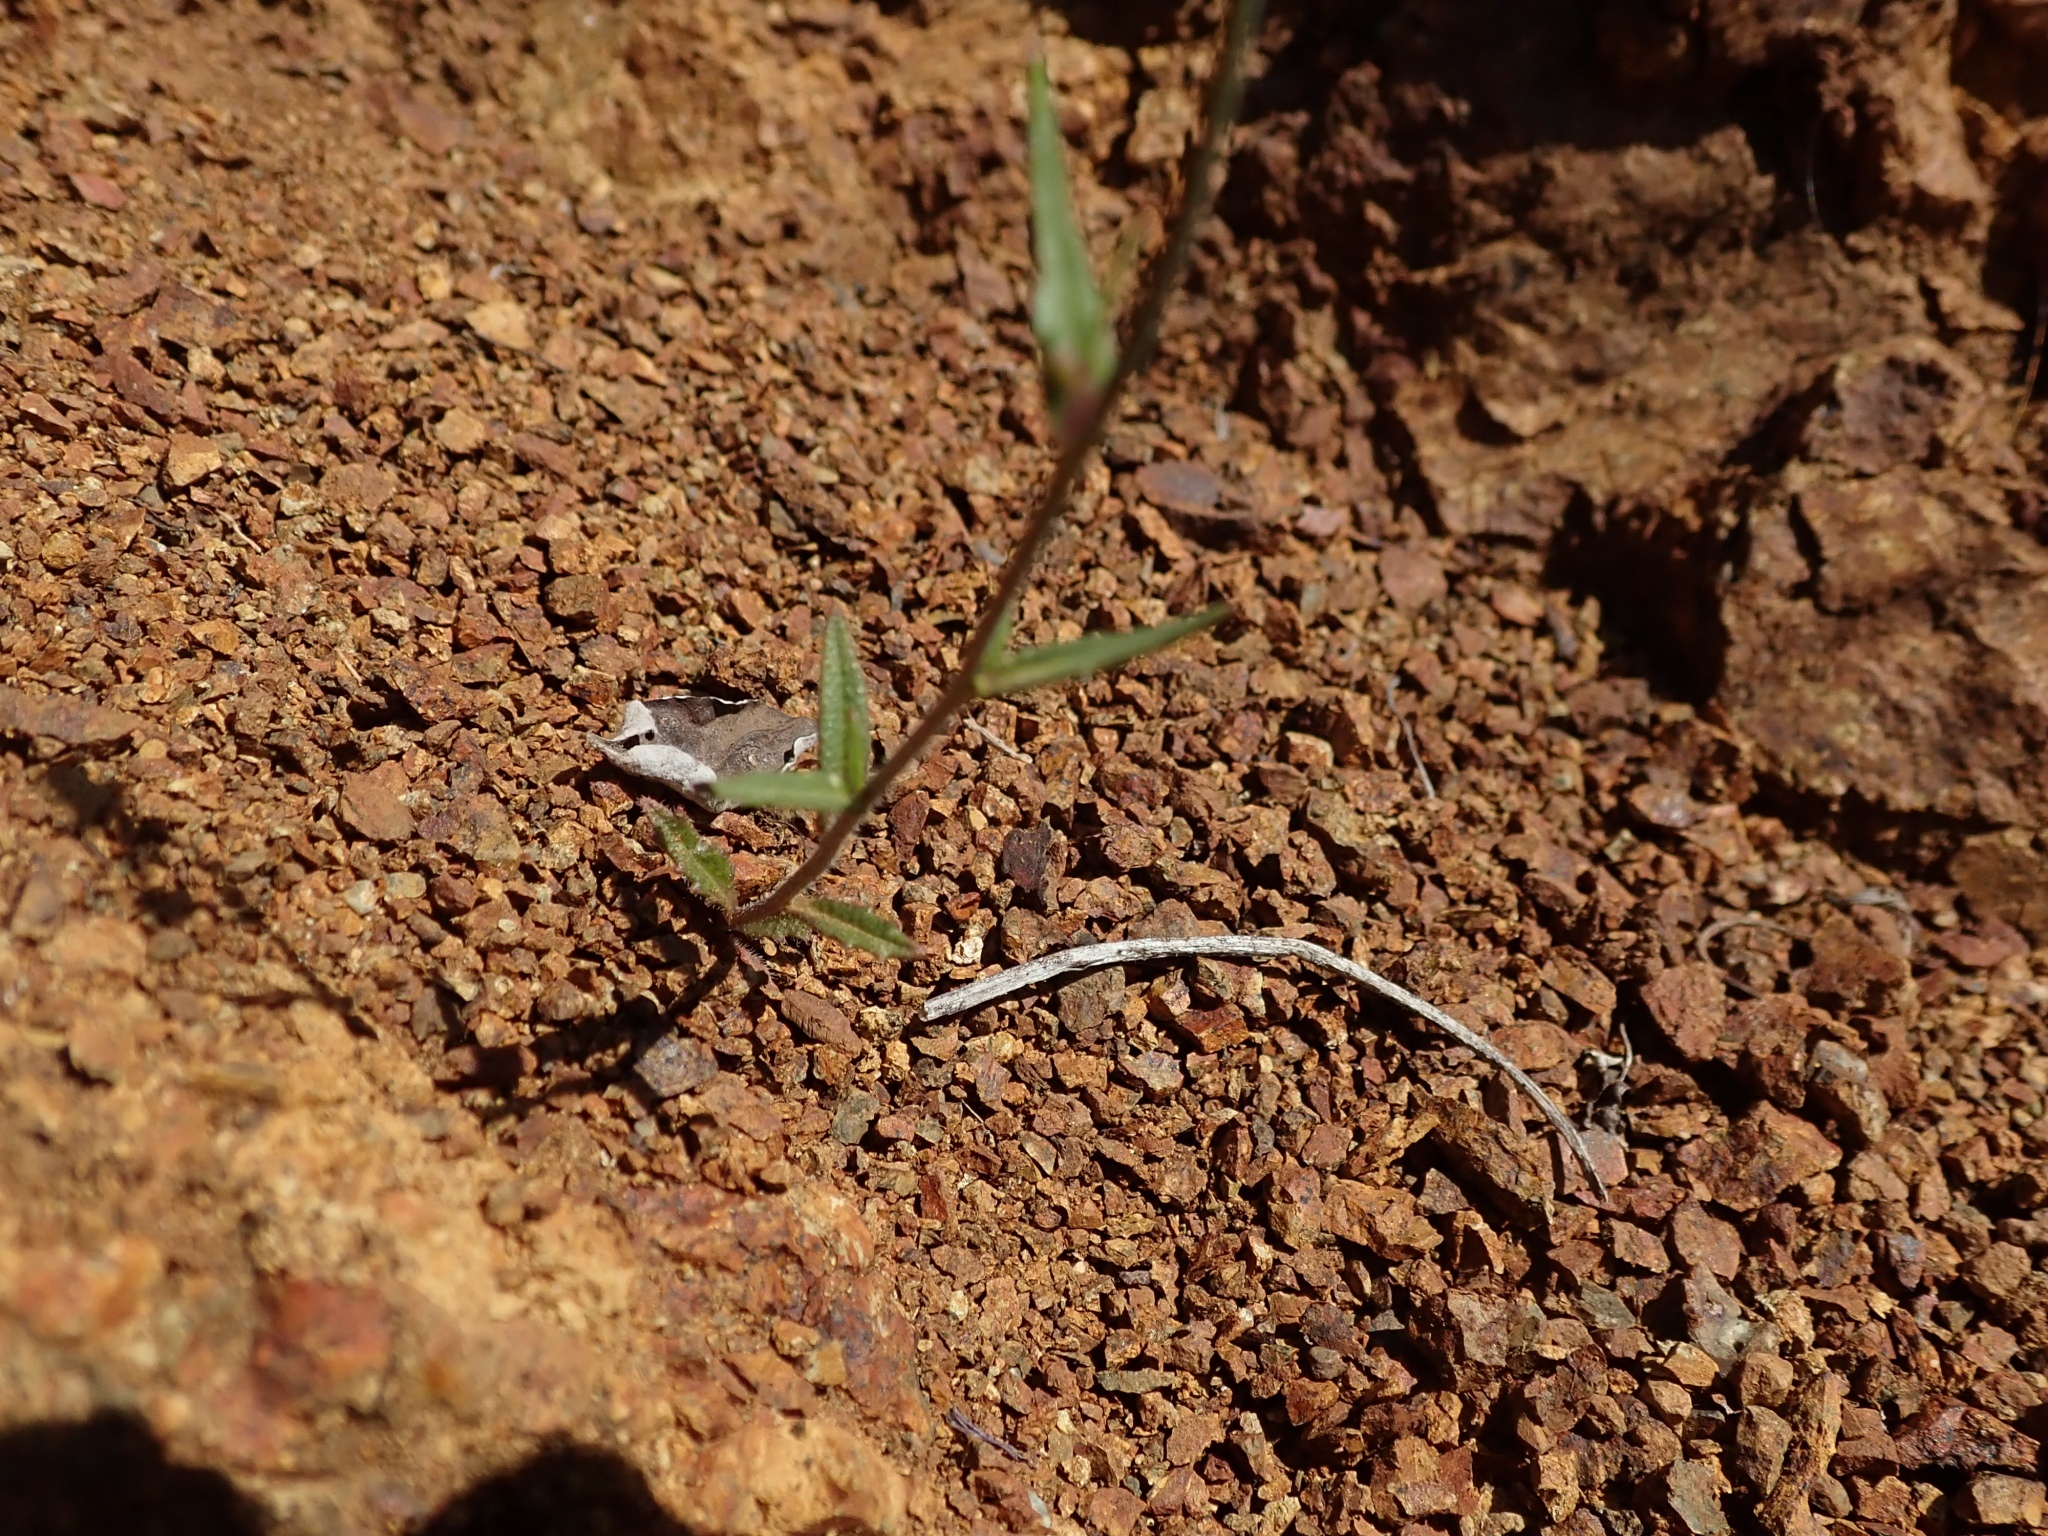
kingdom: Plantae
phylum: Tracheophyta
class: Magnoliopsida
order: Brassicales
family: Brassicaceae
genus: Streptanthus
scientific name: Streptanthus glandulosus
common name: Jewel-flower
